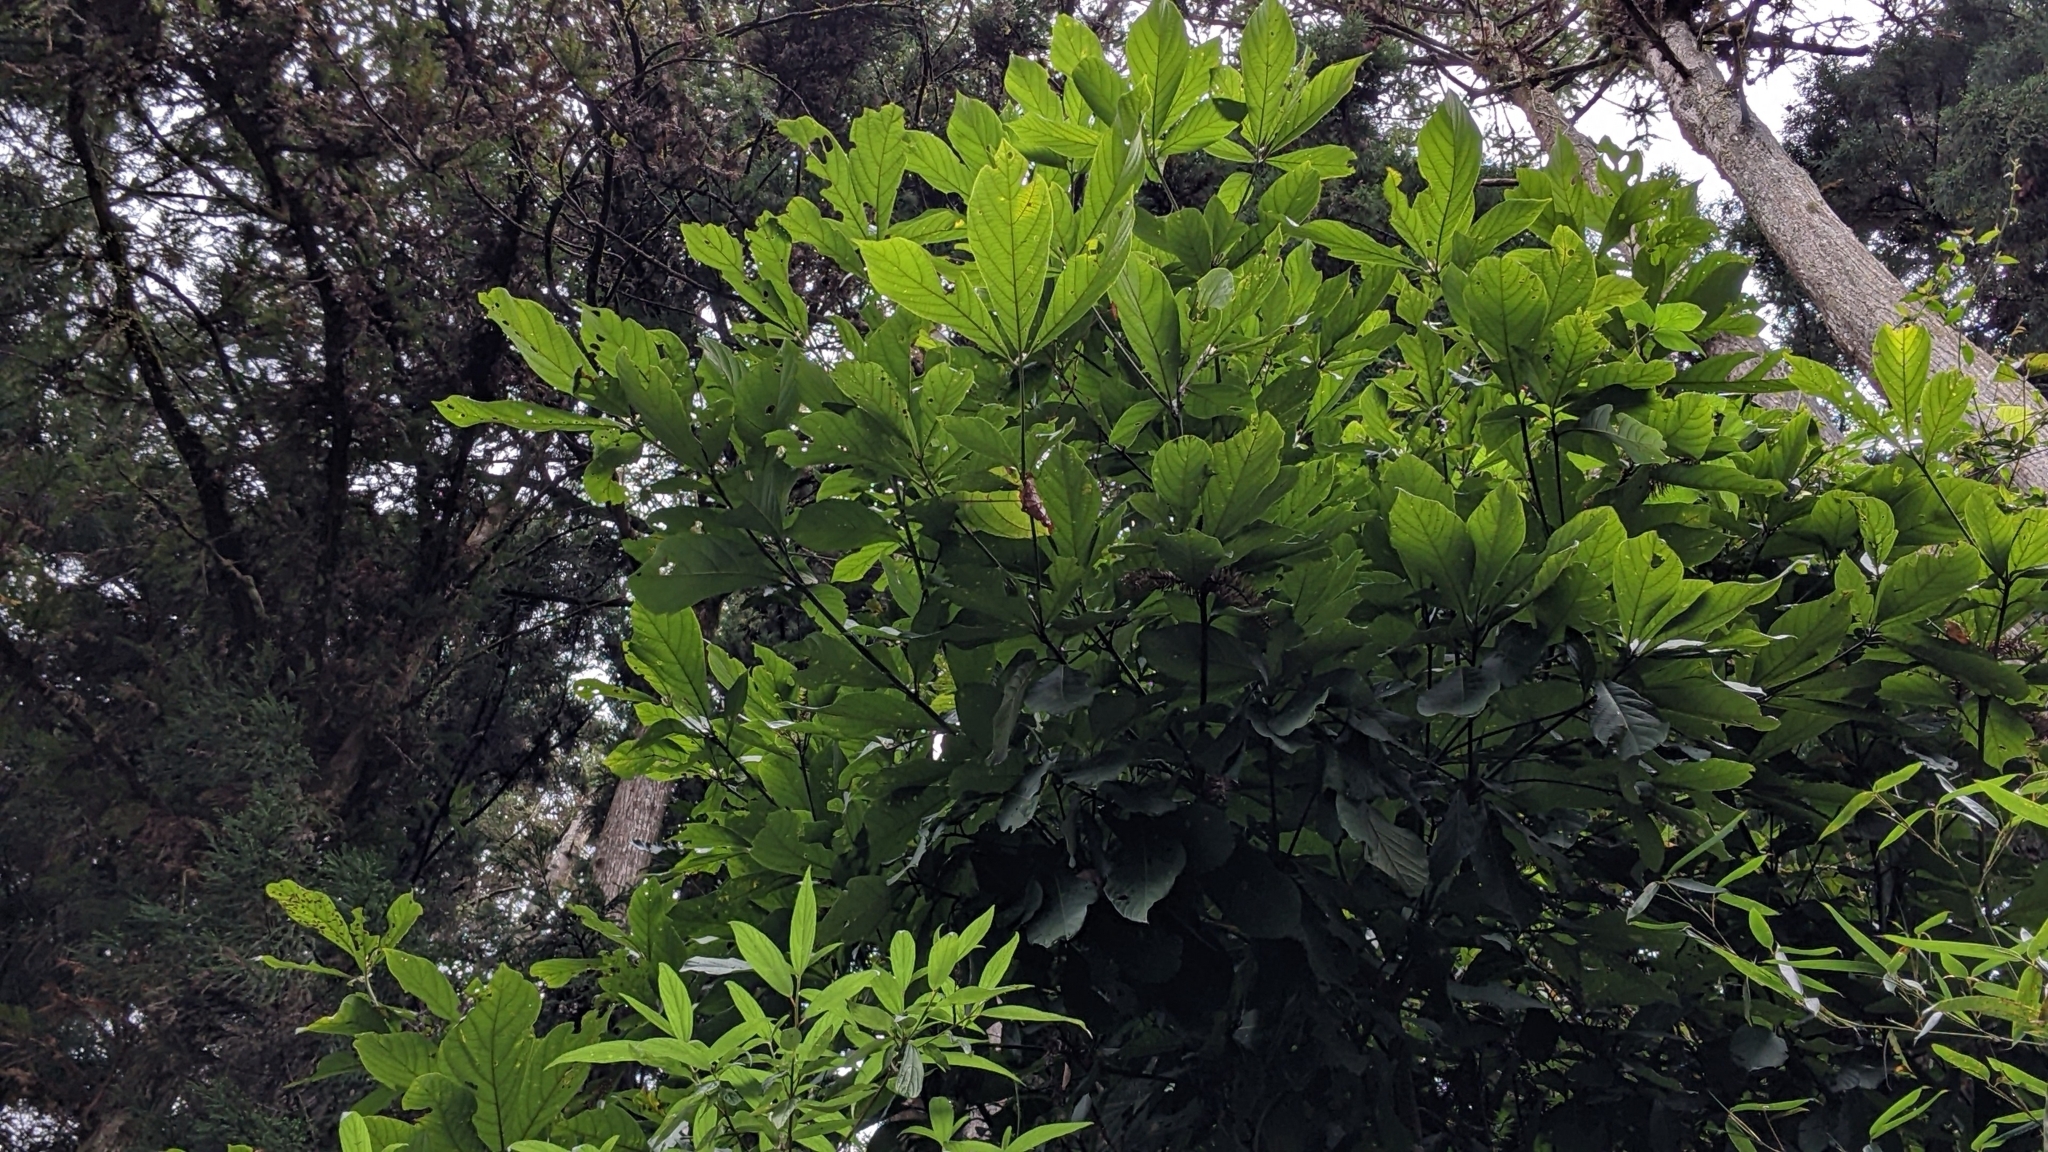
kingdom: Plantae
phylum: Tracheophyta
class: Magnoliopsida
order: Laurales
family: Lauraceae
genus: Phoebe
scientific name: Phoebe formosana
